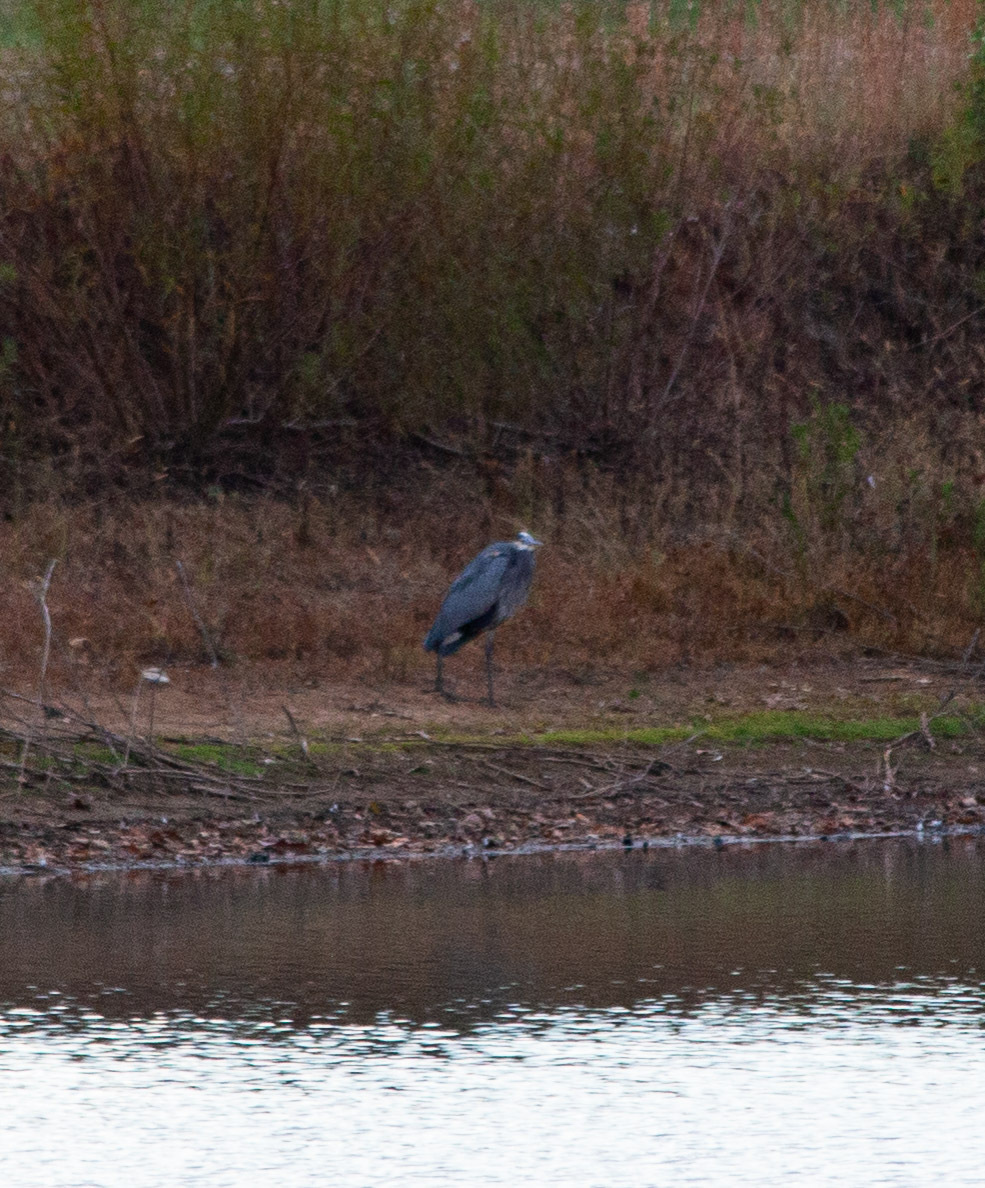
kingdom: Animalia
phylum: Chordata
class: Aves
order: Pelecaniformes
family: Ardeidae
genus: Ardea
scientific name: Ardea herodias
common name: Great blue heron
